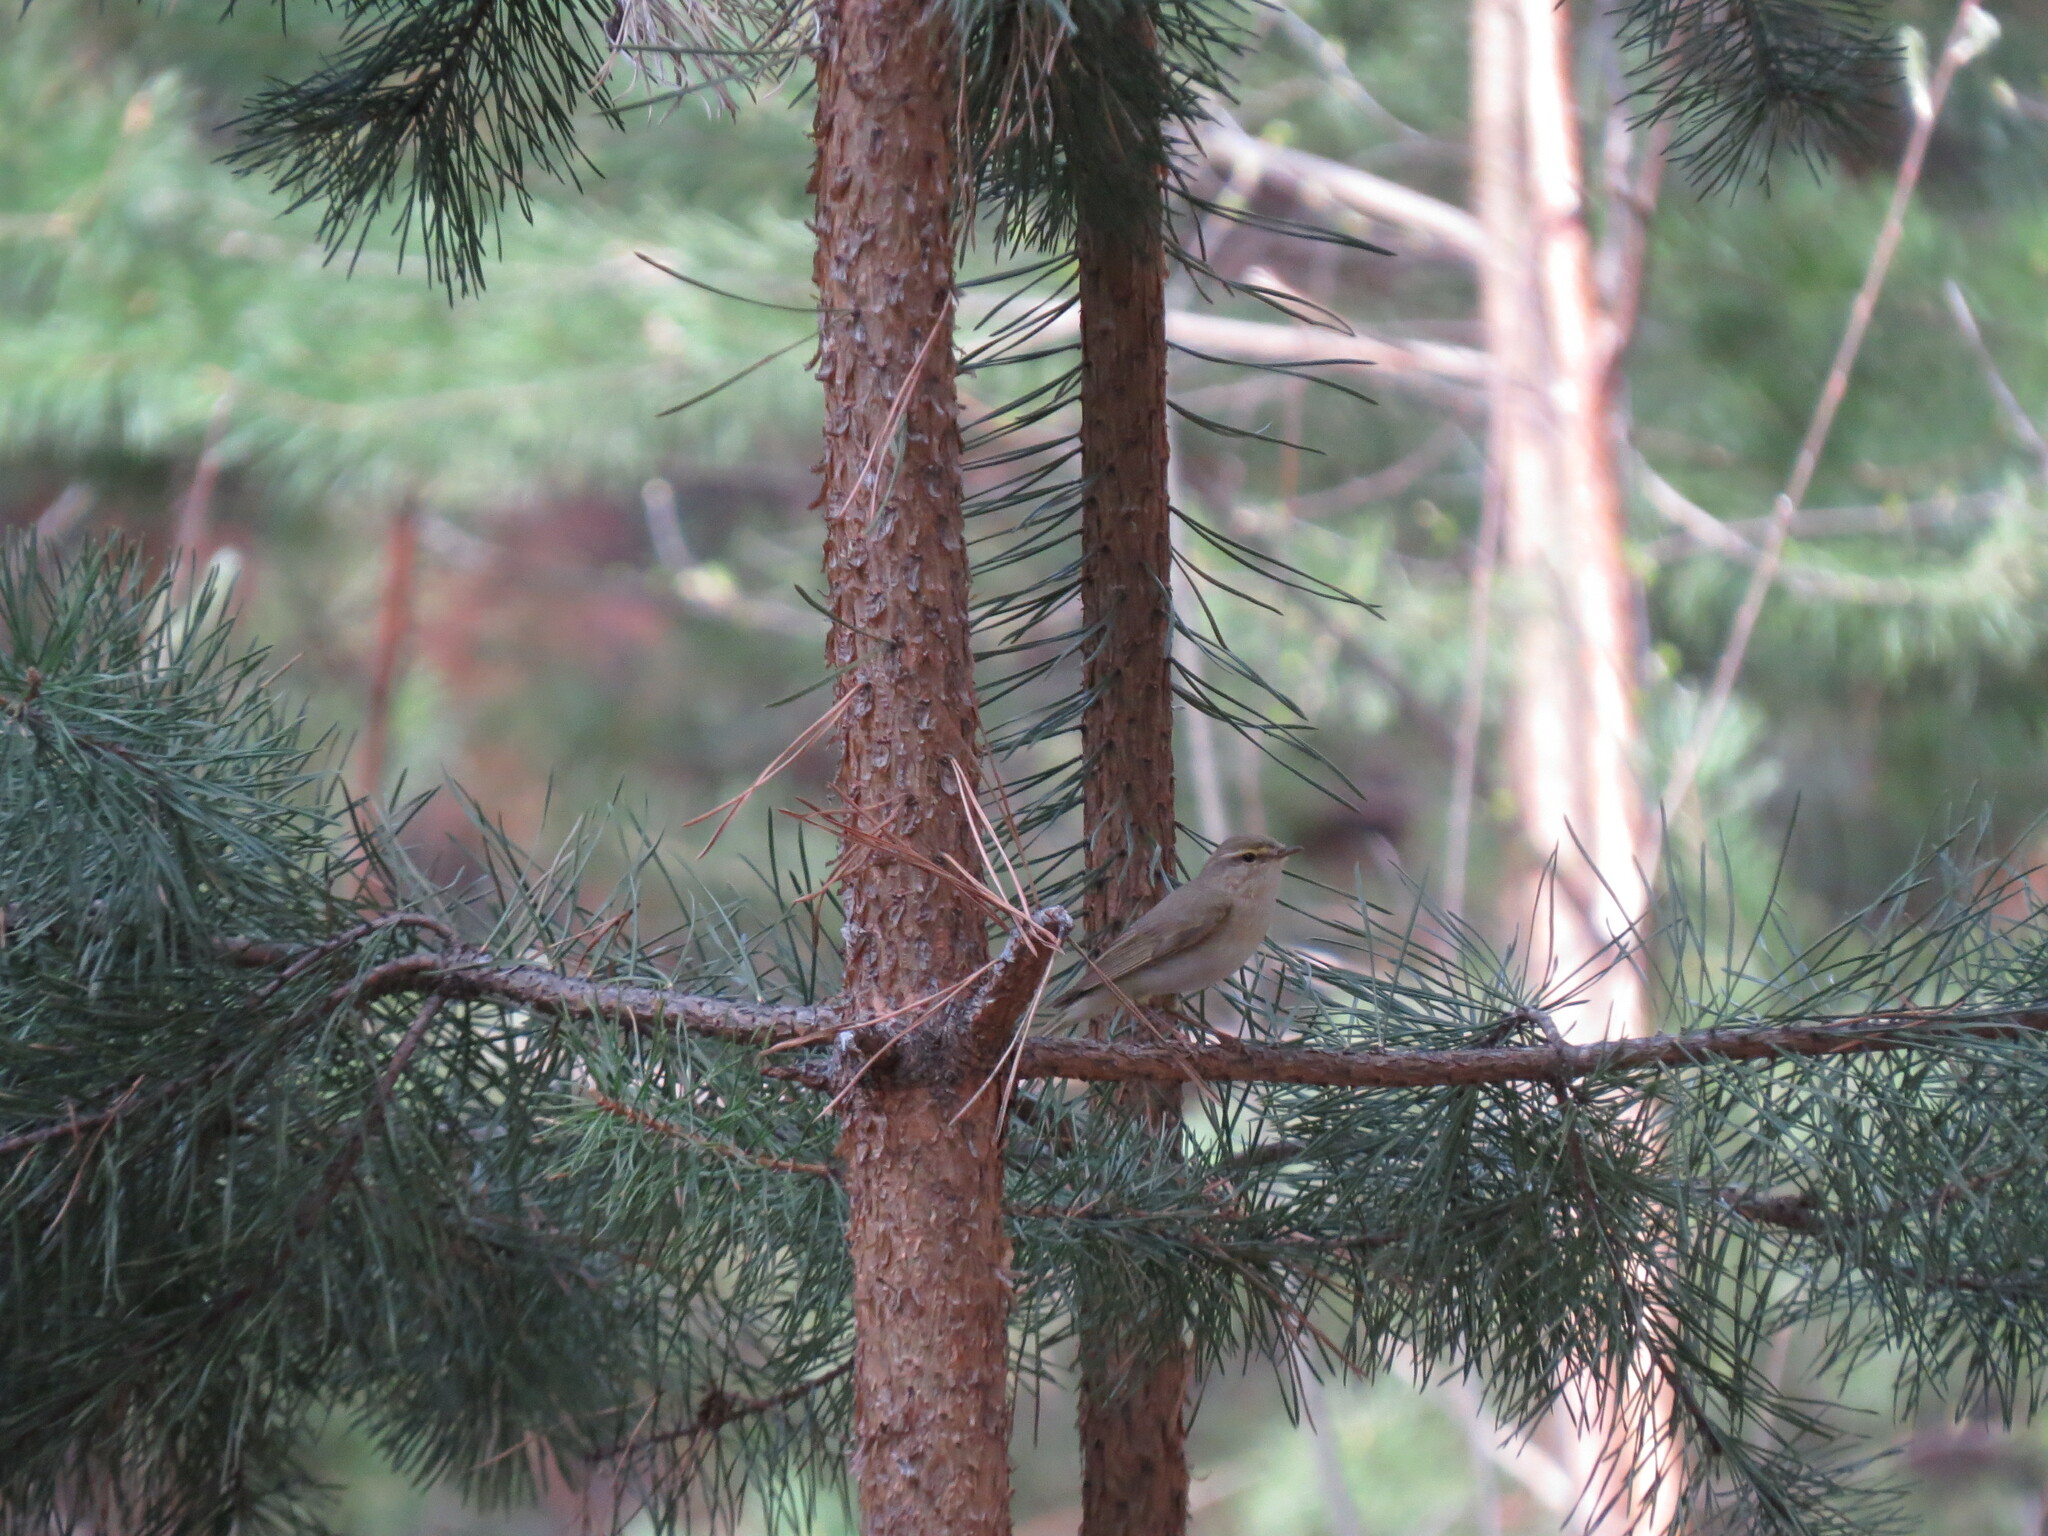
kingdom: Animalia
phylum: Chordata
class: Aves
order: Passeriformes
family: Phylloscopidae
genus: Phylloscopus
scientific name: Phylloscopus trochilus
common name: Willow warbler
